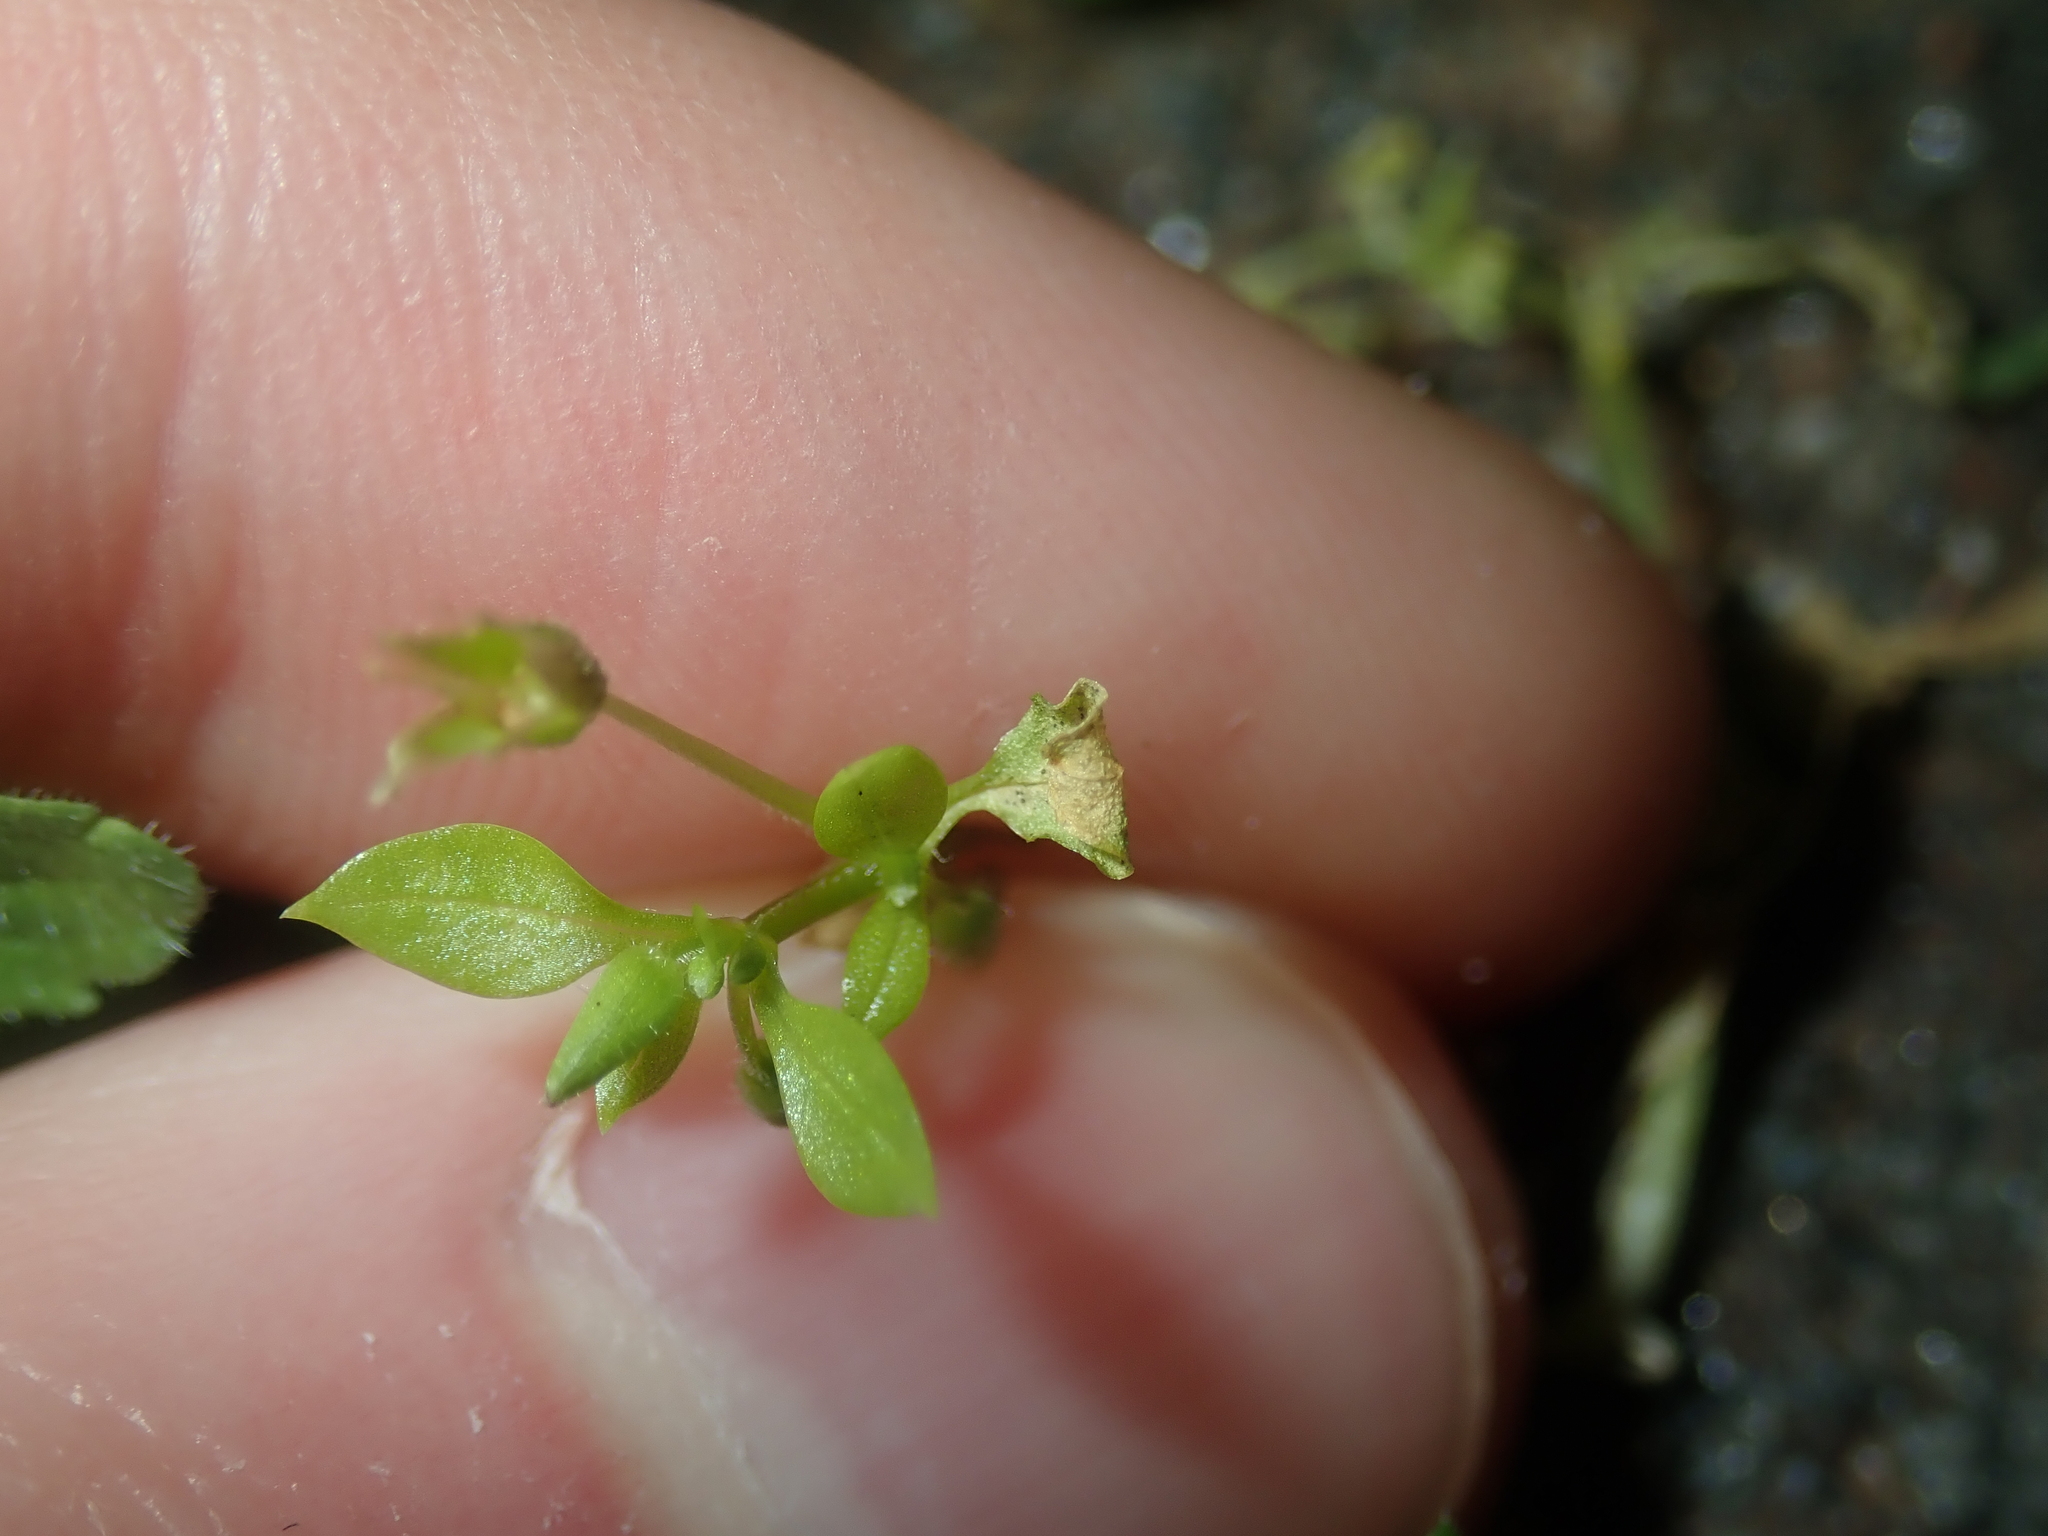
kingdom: Plantae
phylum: Tracheophyta
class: Magnoliopsida
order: Caryophyllales
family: Caryophyllaceae
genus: Stellaria
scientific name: Stellaria media
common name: Common chickweed
